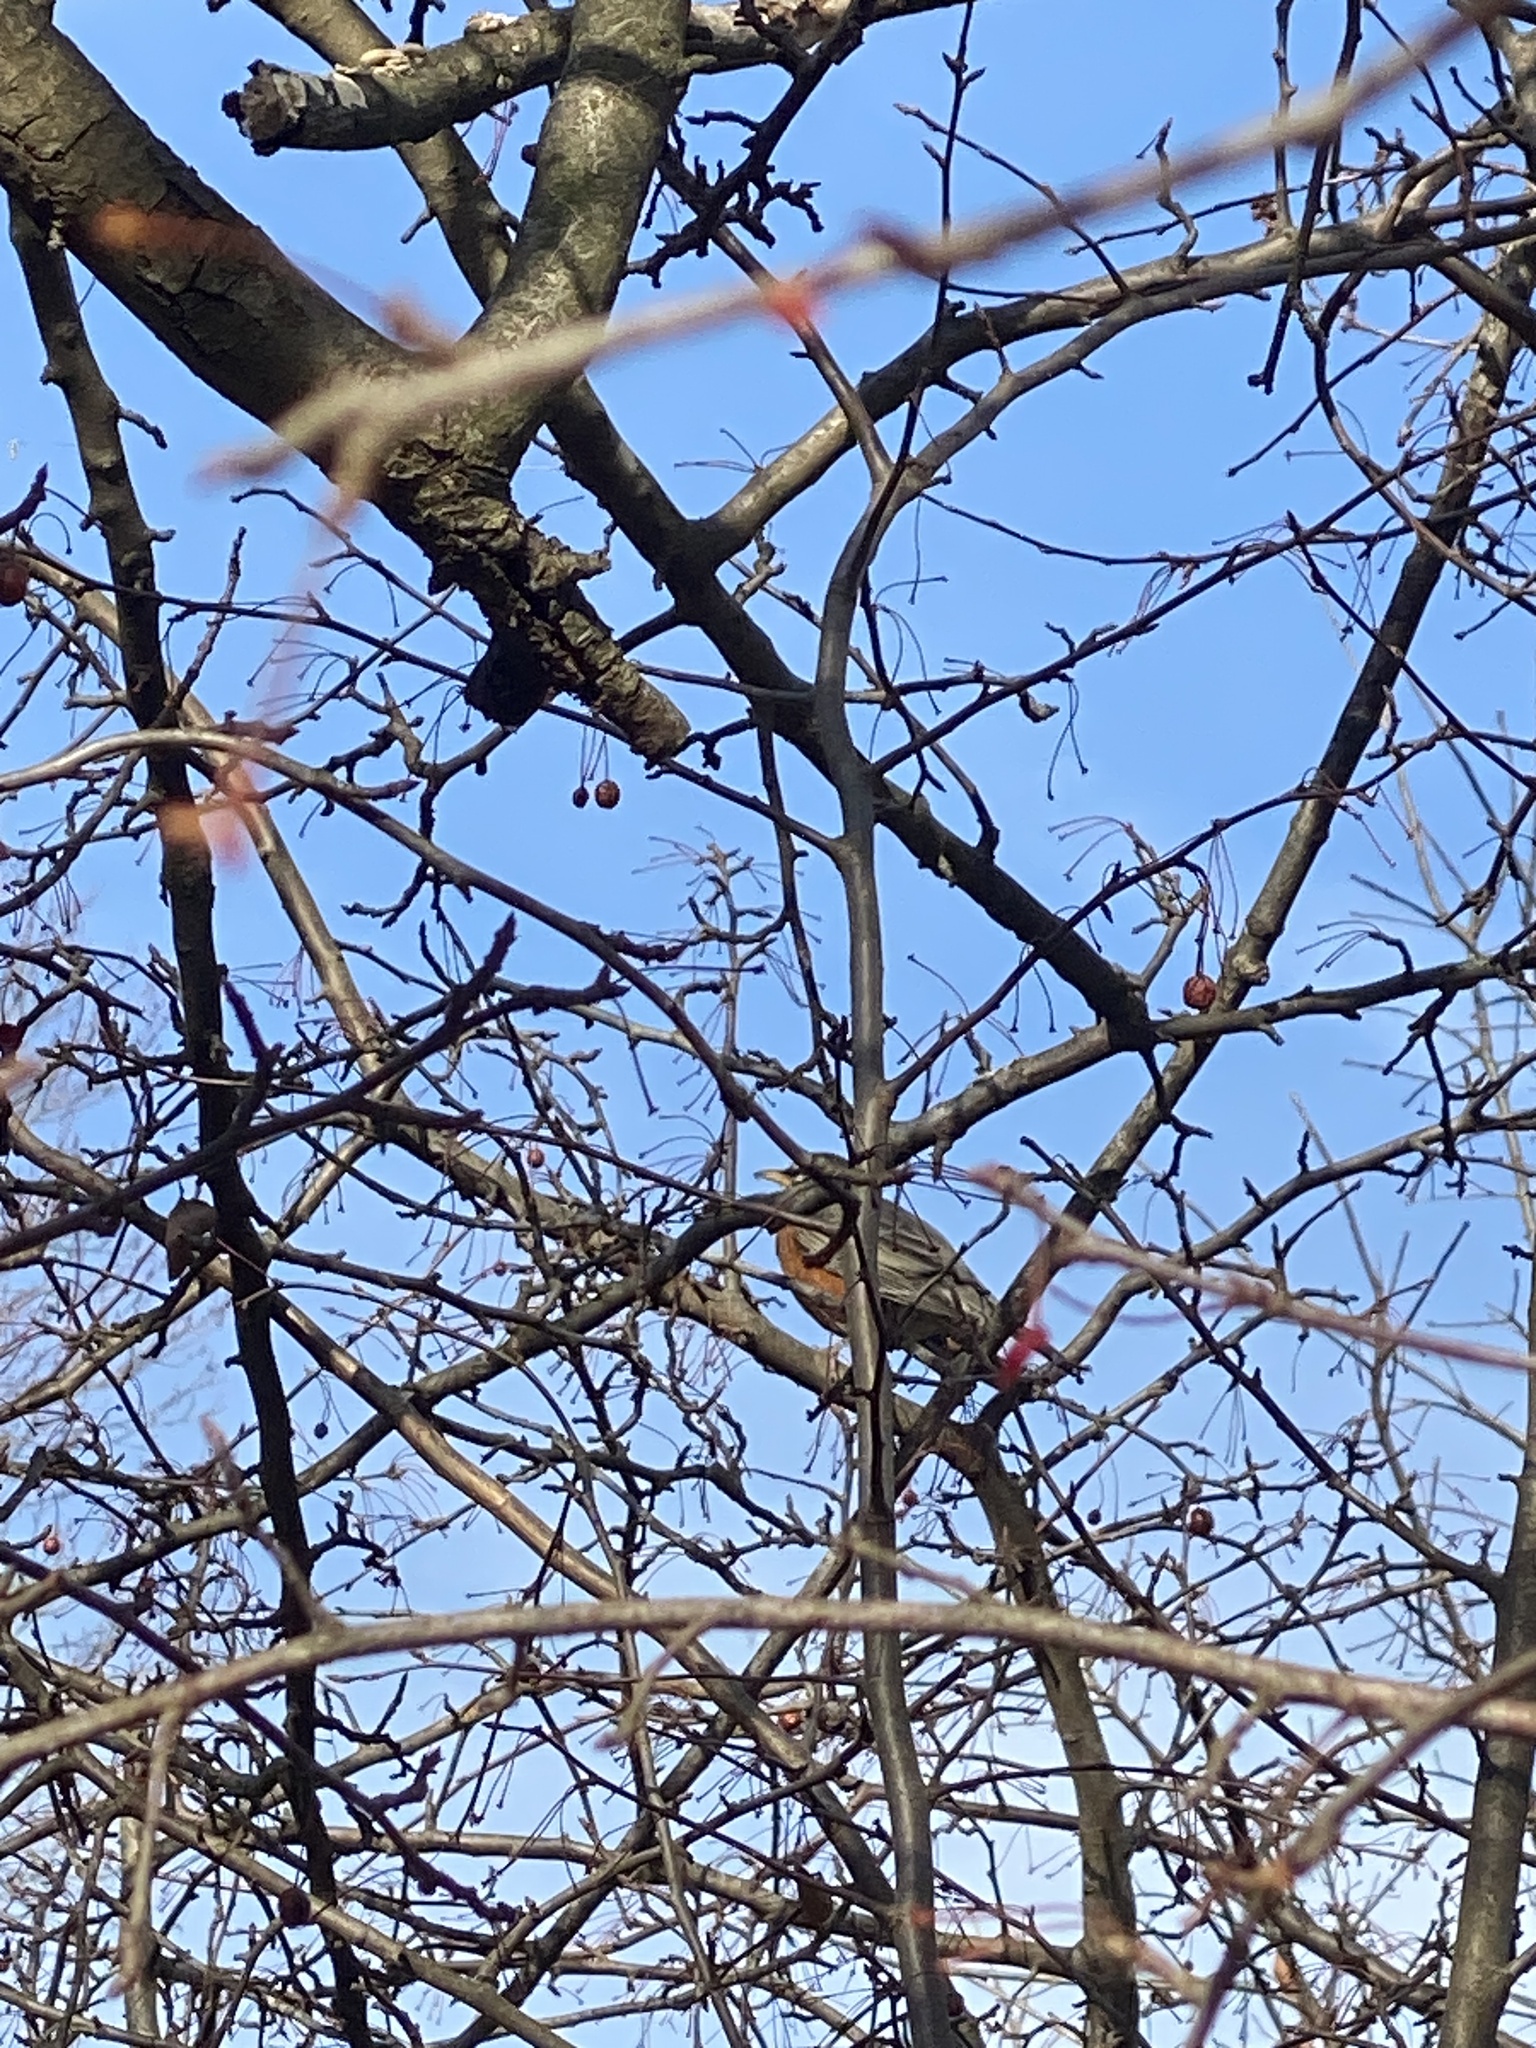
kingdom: Animalia
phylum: Chordata
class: Aves
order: Passeriformes
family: Turdidae
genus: Turdus
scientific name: Turdus migratorius
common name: American robin
